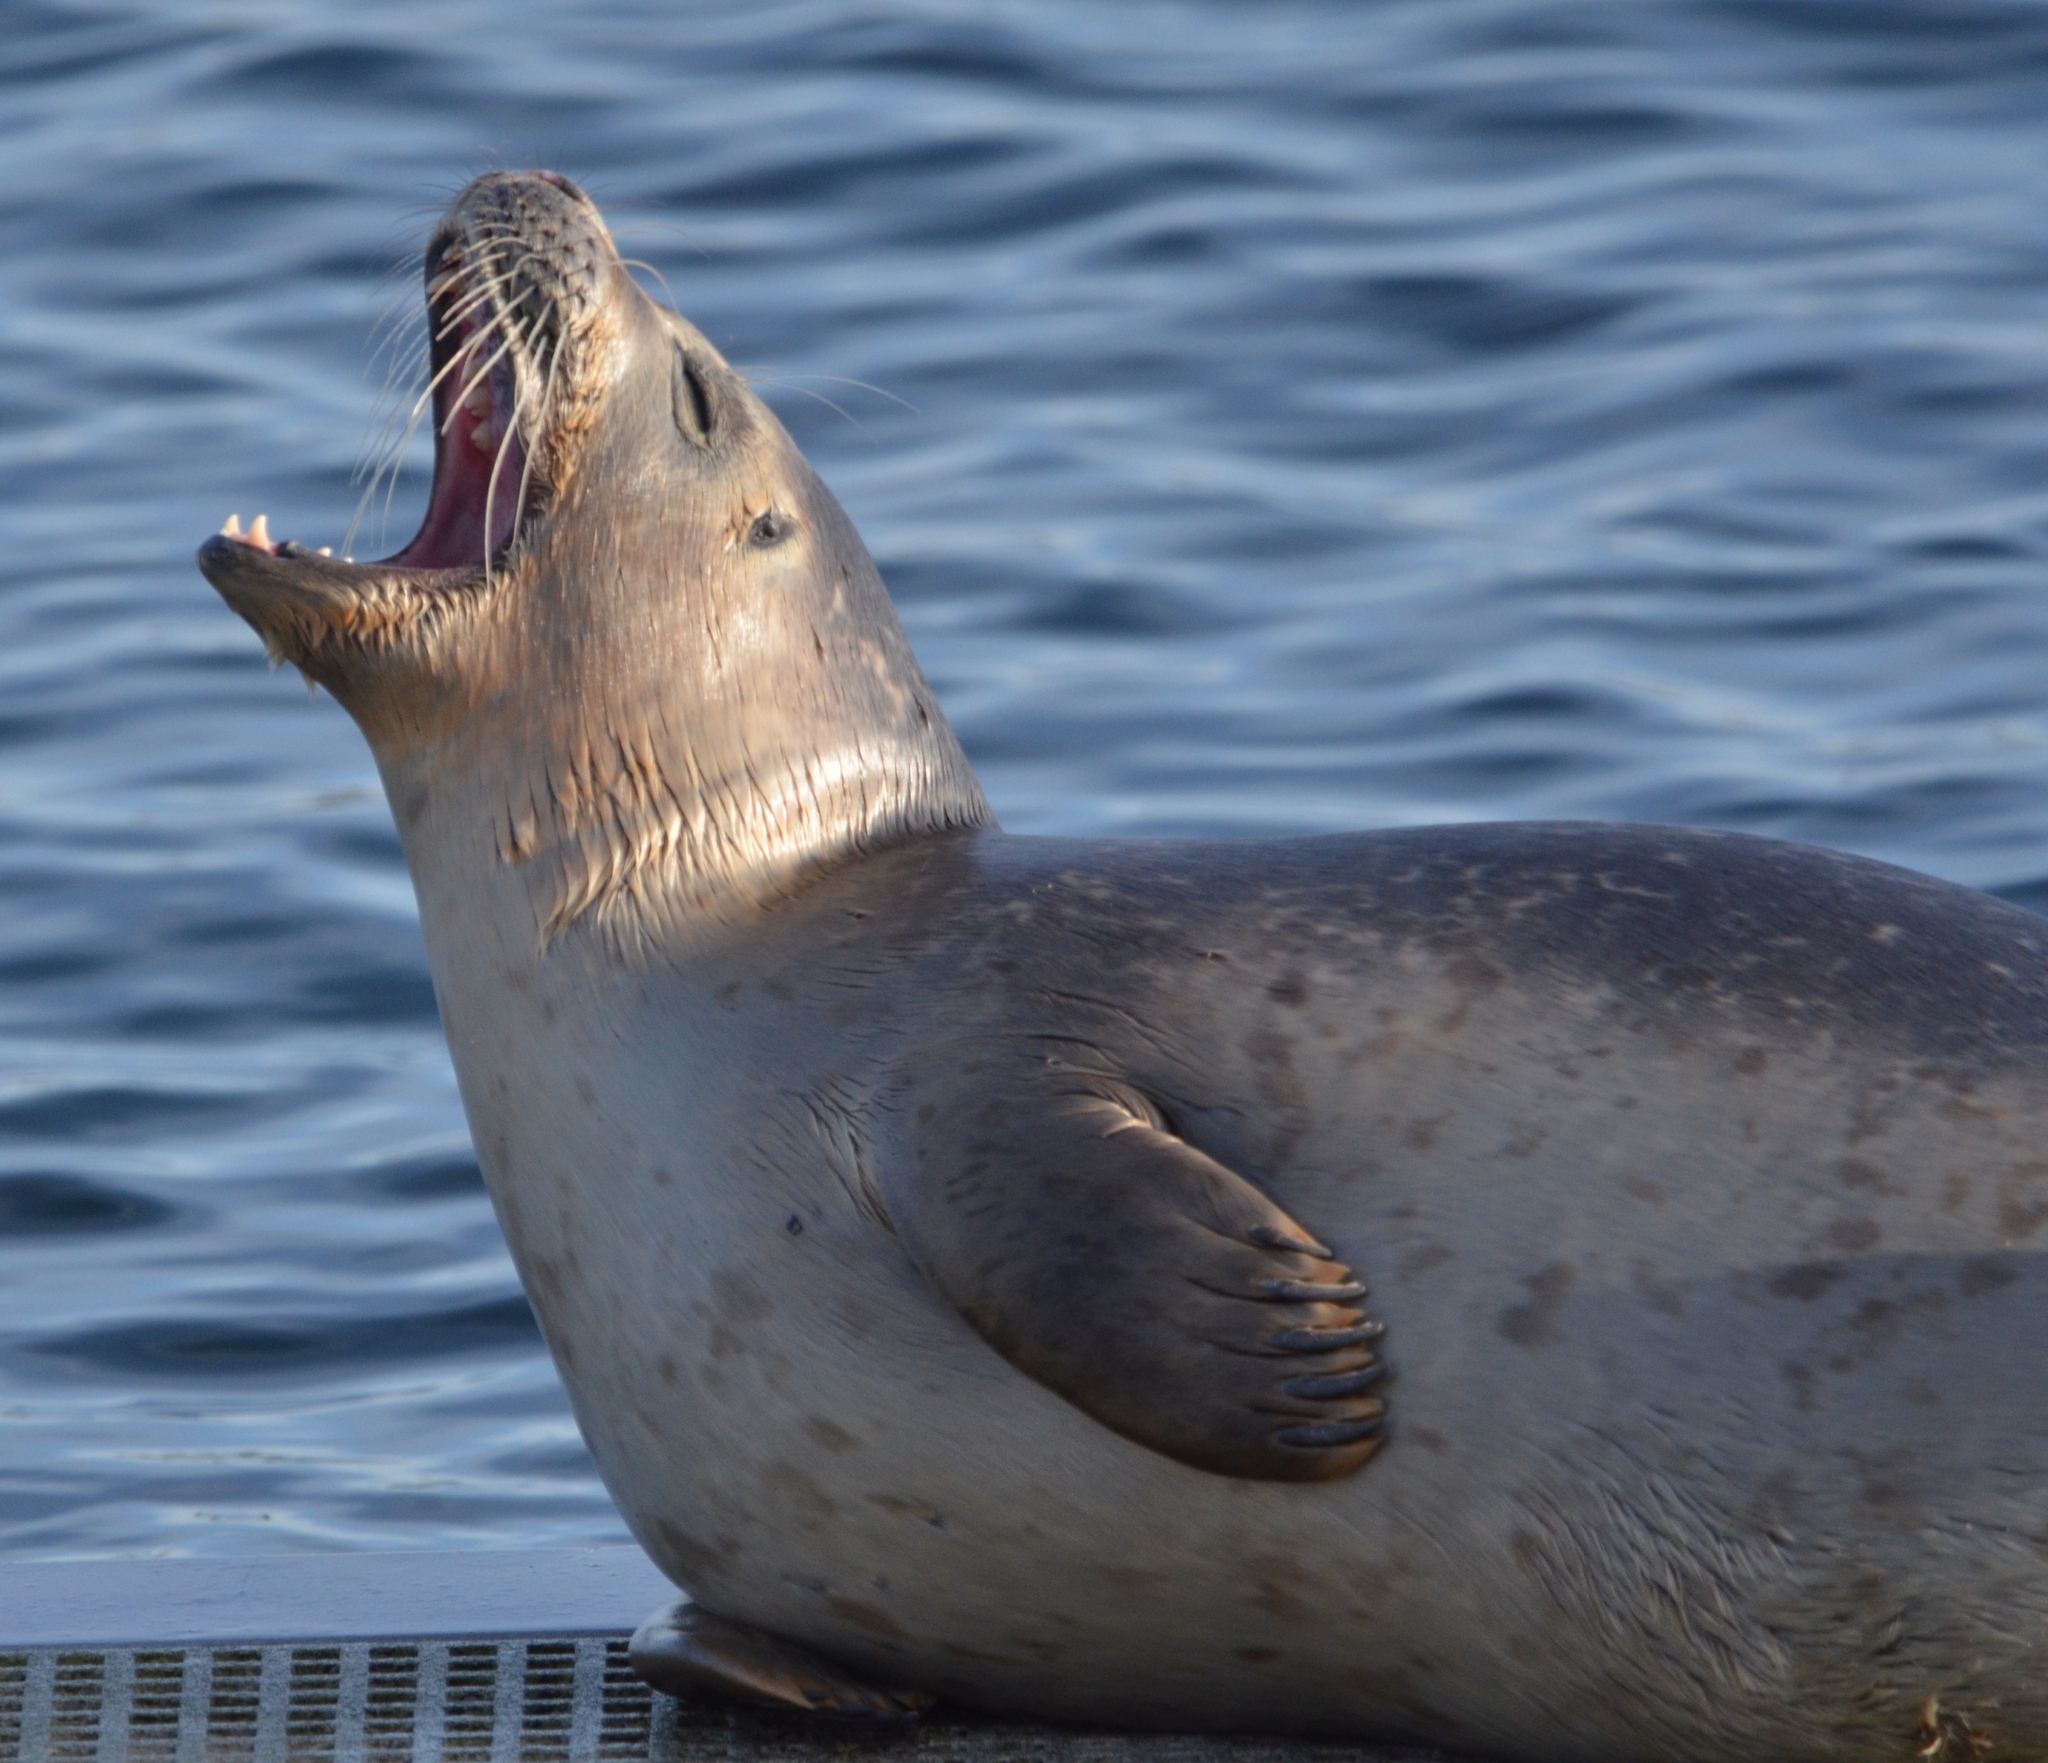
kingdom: Animalia
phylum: Chordata
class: Mammalia
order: Carnivora
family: Phocidae
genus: Phoca
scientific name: Phoca vitulina
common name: Harbor seal
